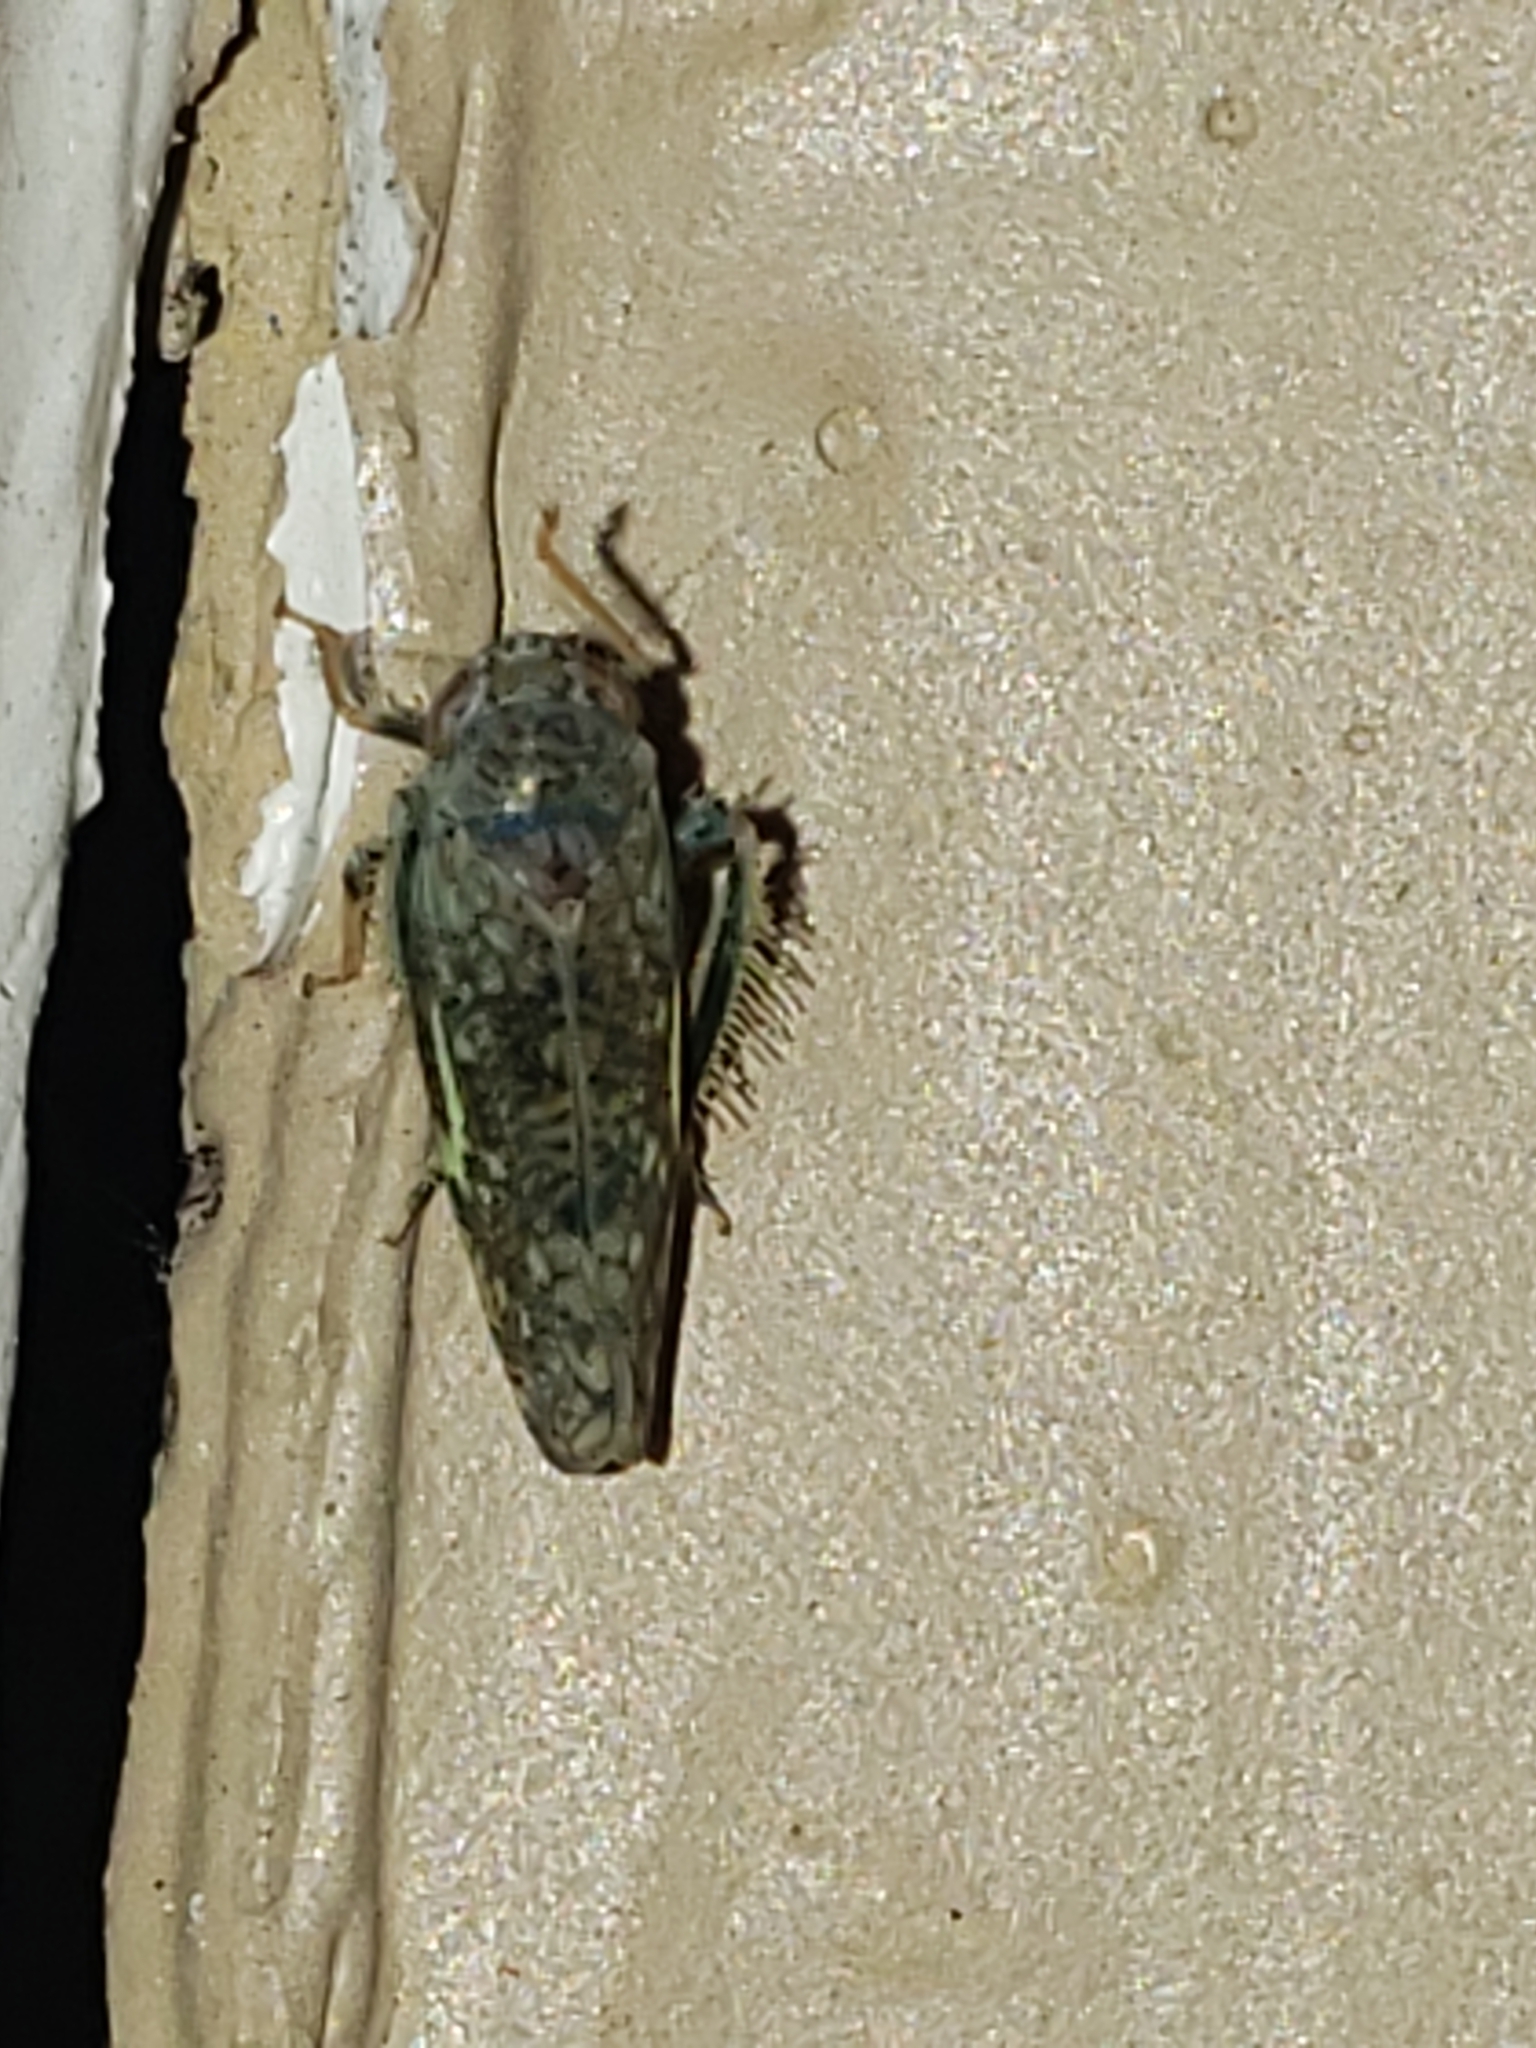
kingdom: Animalia
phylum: Arthropoda
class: Insecta
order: Hemiptera
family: Cicadellidae
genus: Orientus
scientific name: Orientus ishidae
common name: Japanese leafhopper
